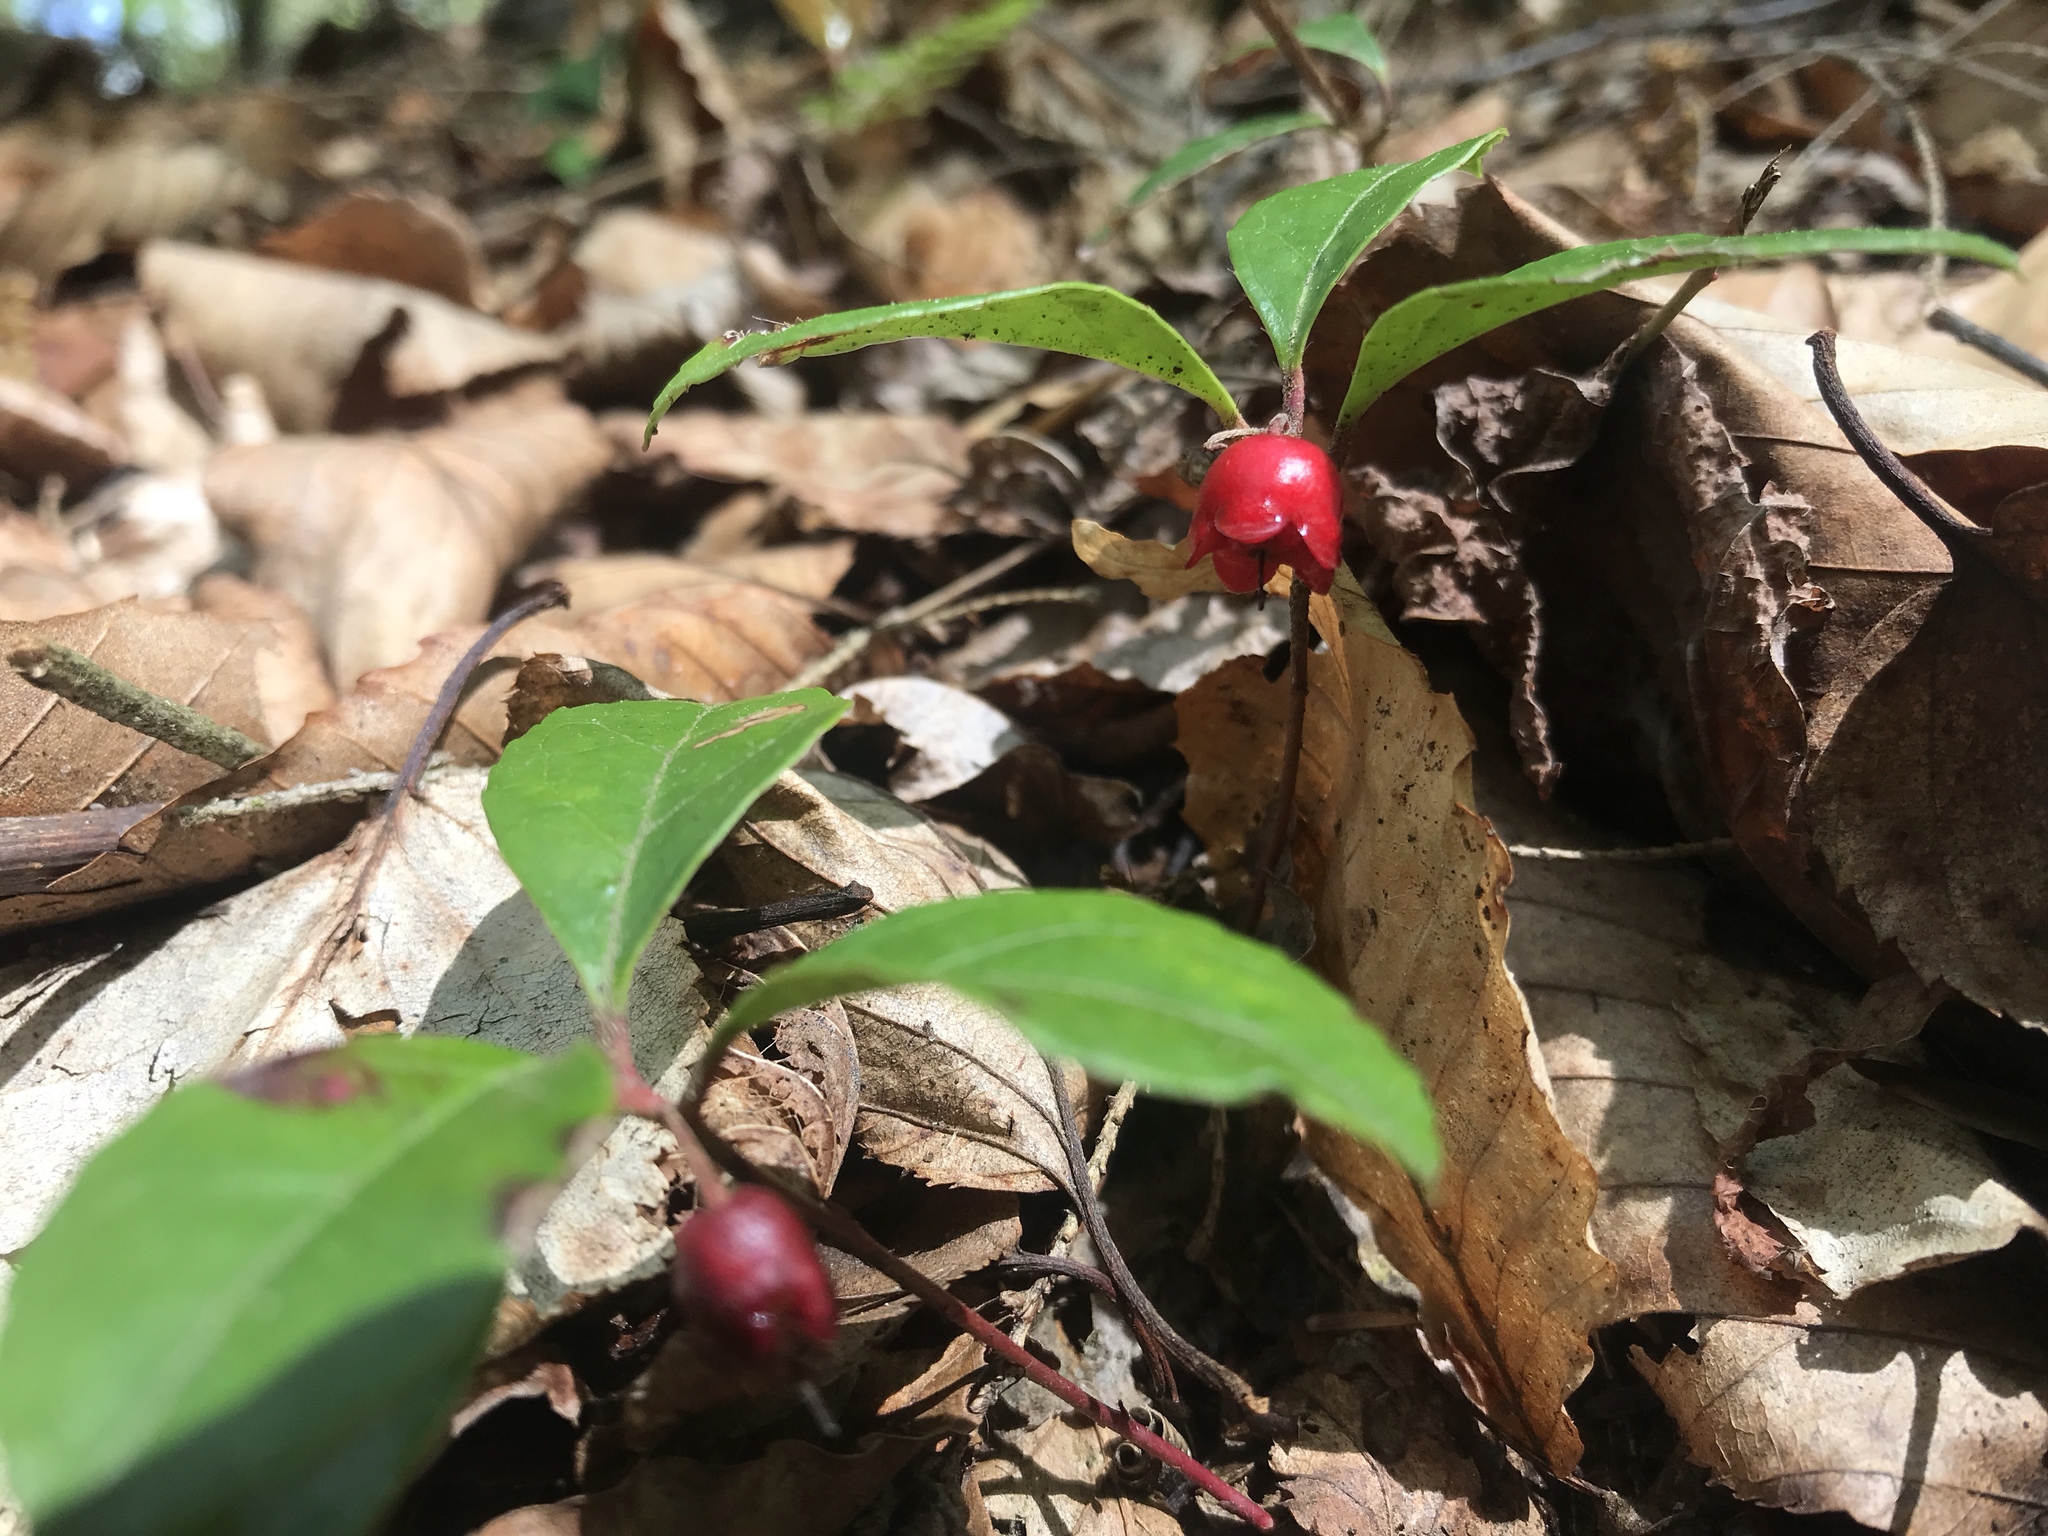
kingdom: Plantae
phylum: Tracheophyta
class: Magnoliopsida
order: Ericales
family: Ericaceae
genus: Gaultheria
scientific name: Gaultheria procumbens
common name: Checkerberry
